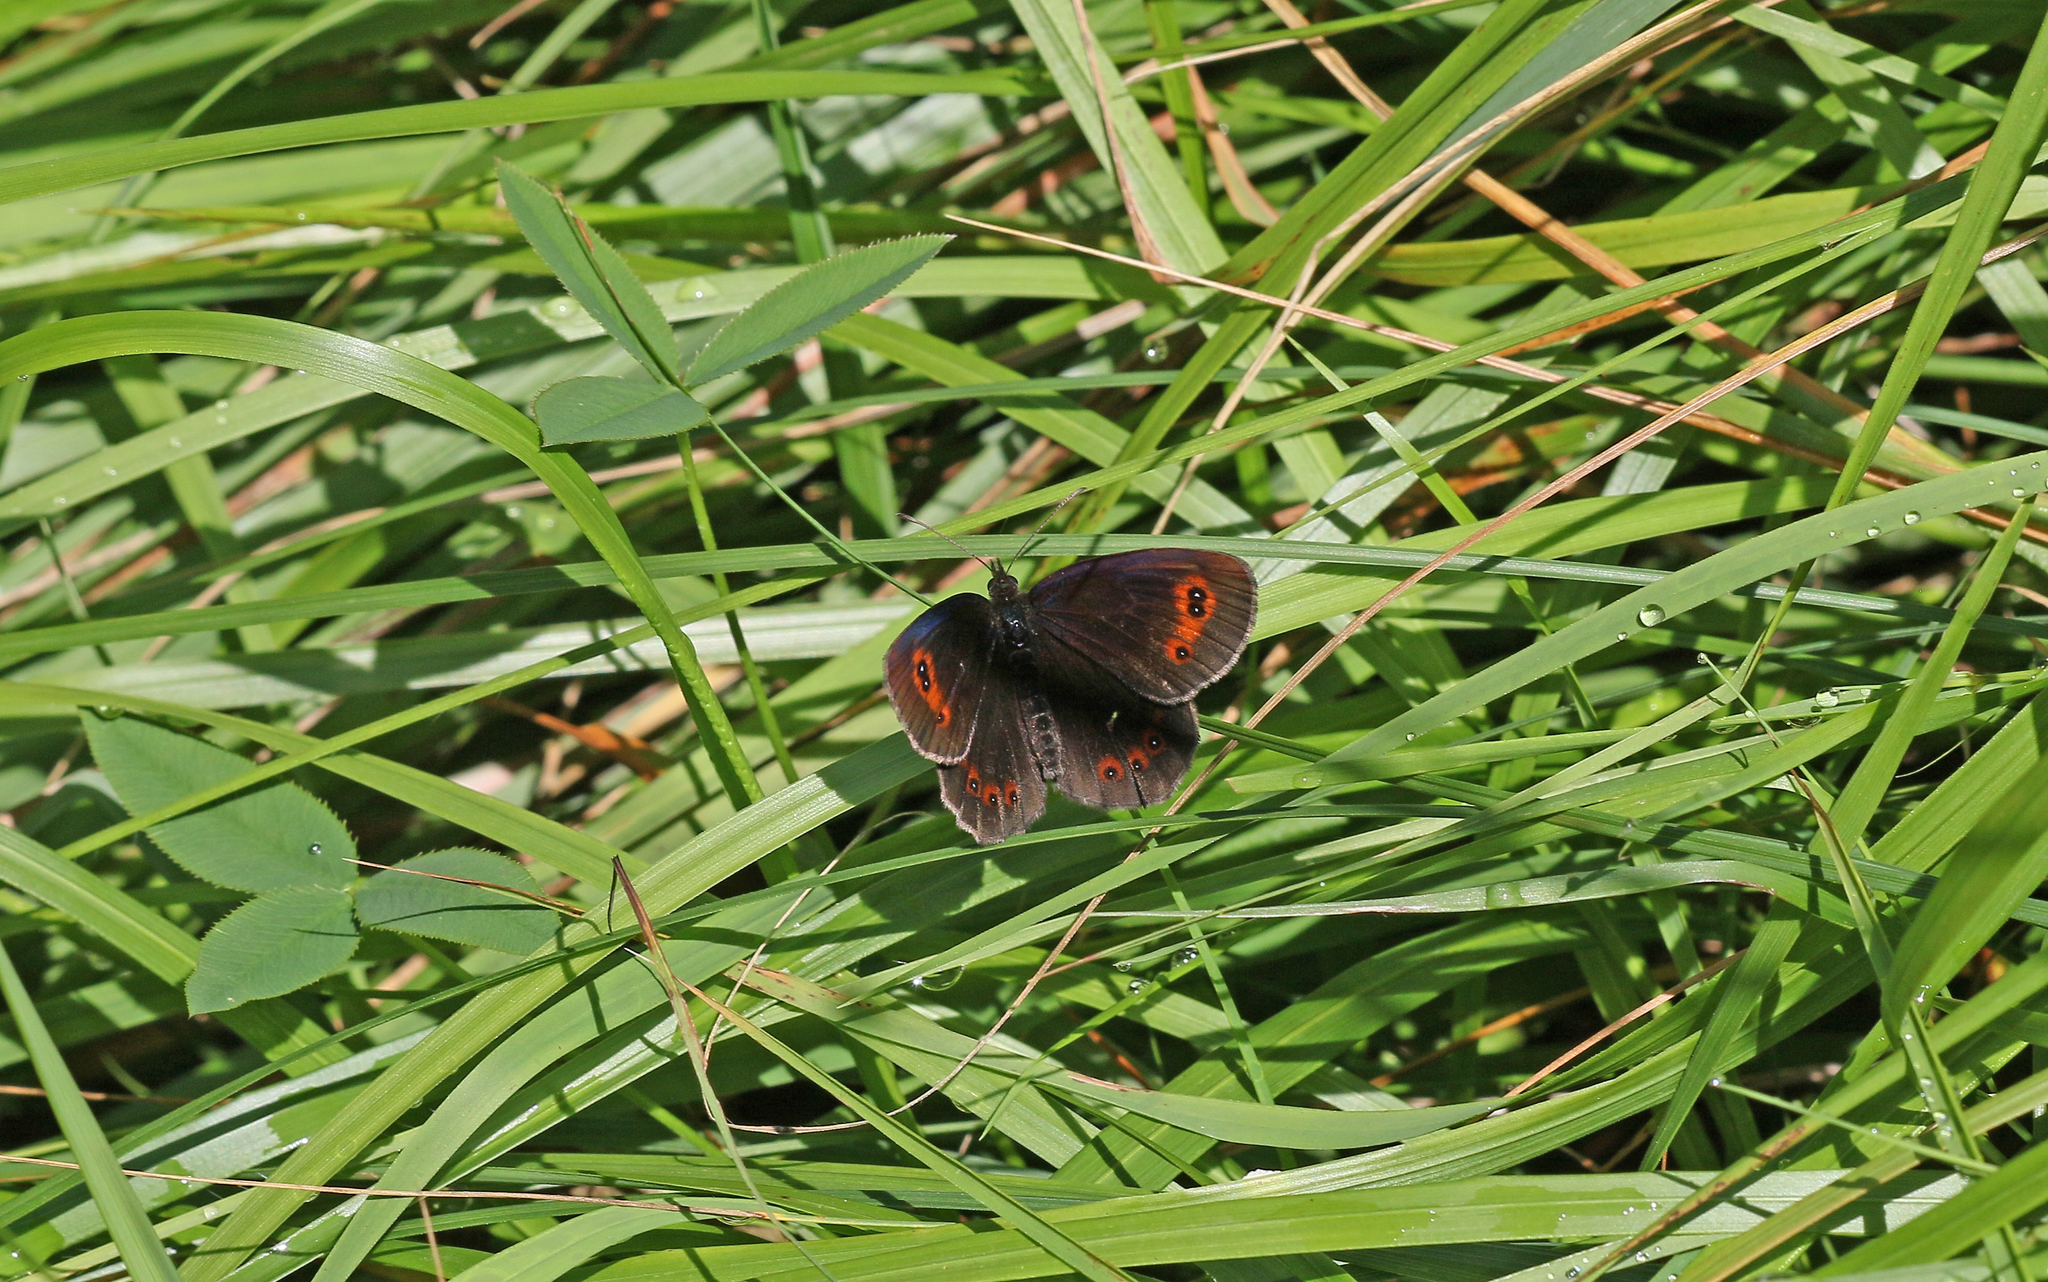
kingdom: Animalia
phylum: Arthropoda
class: Insecta
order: Lepidoptera
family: Nymphalidae
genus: Erebia
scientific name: Erebia aethiops
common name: Scotch argus
